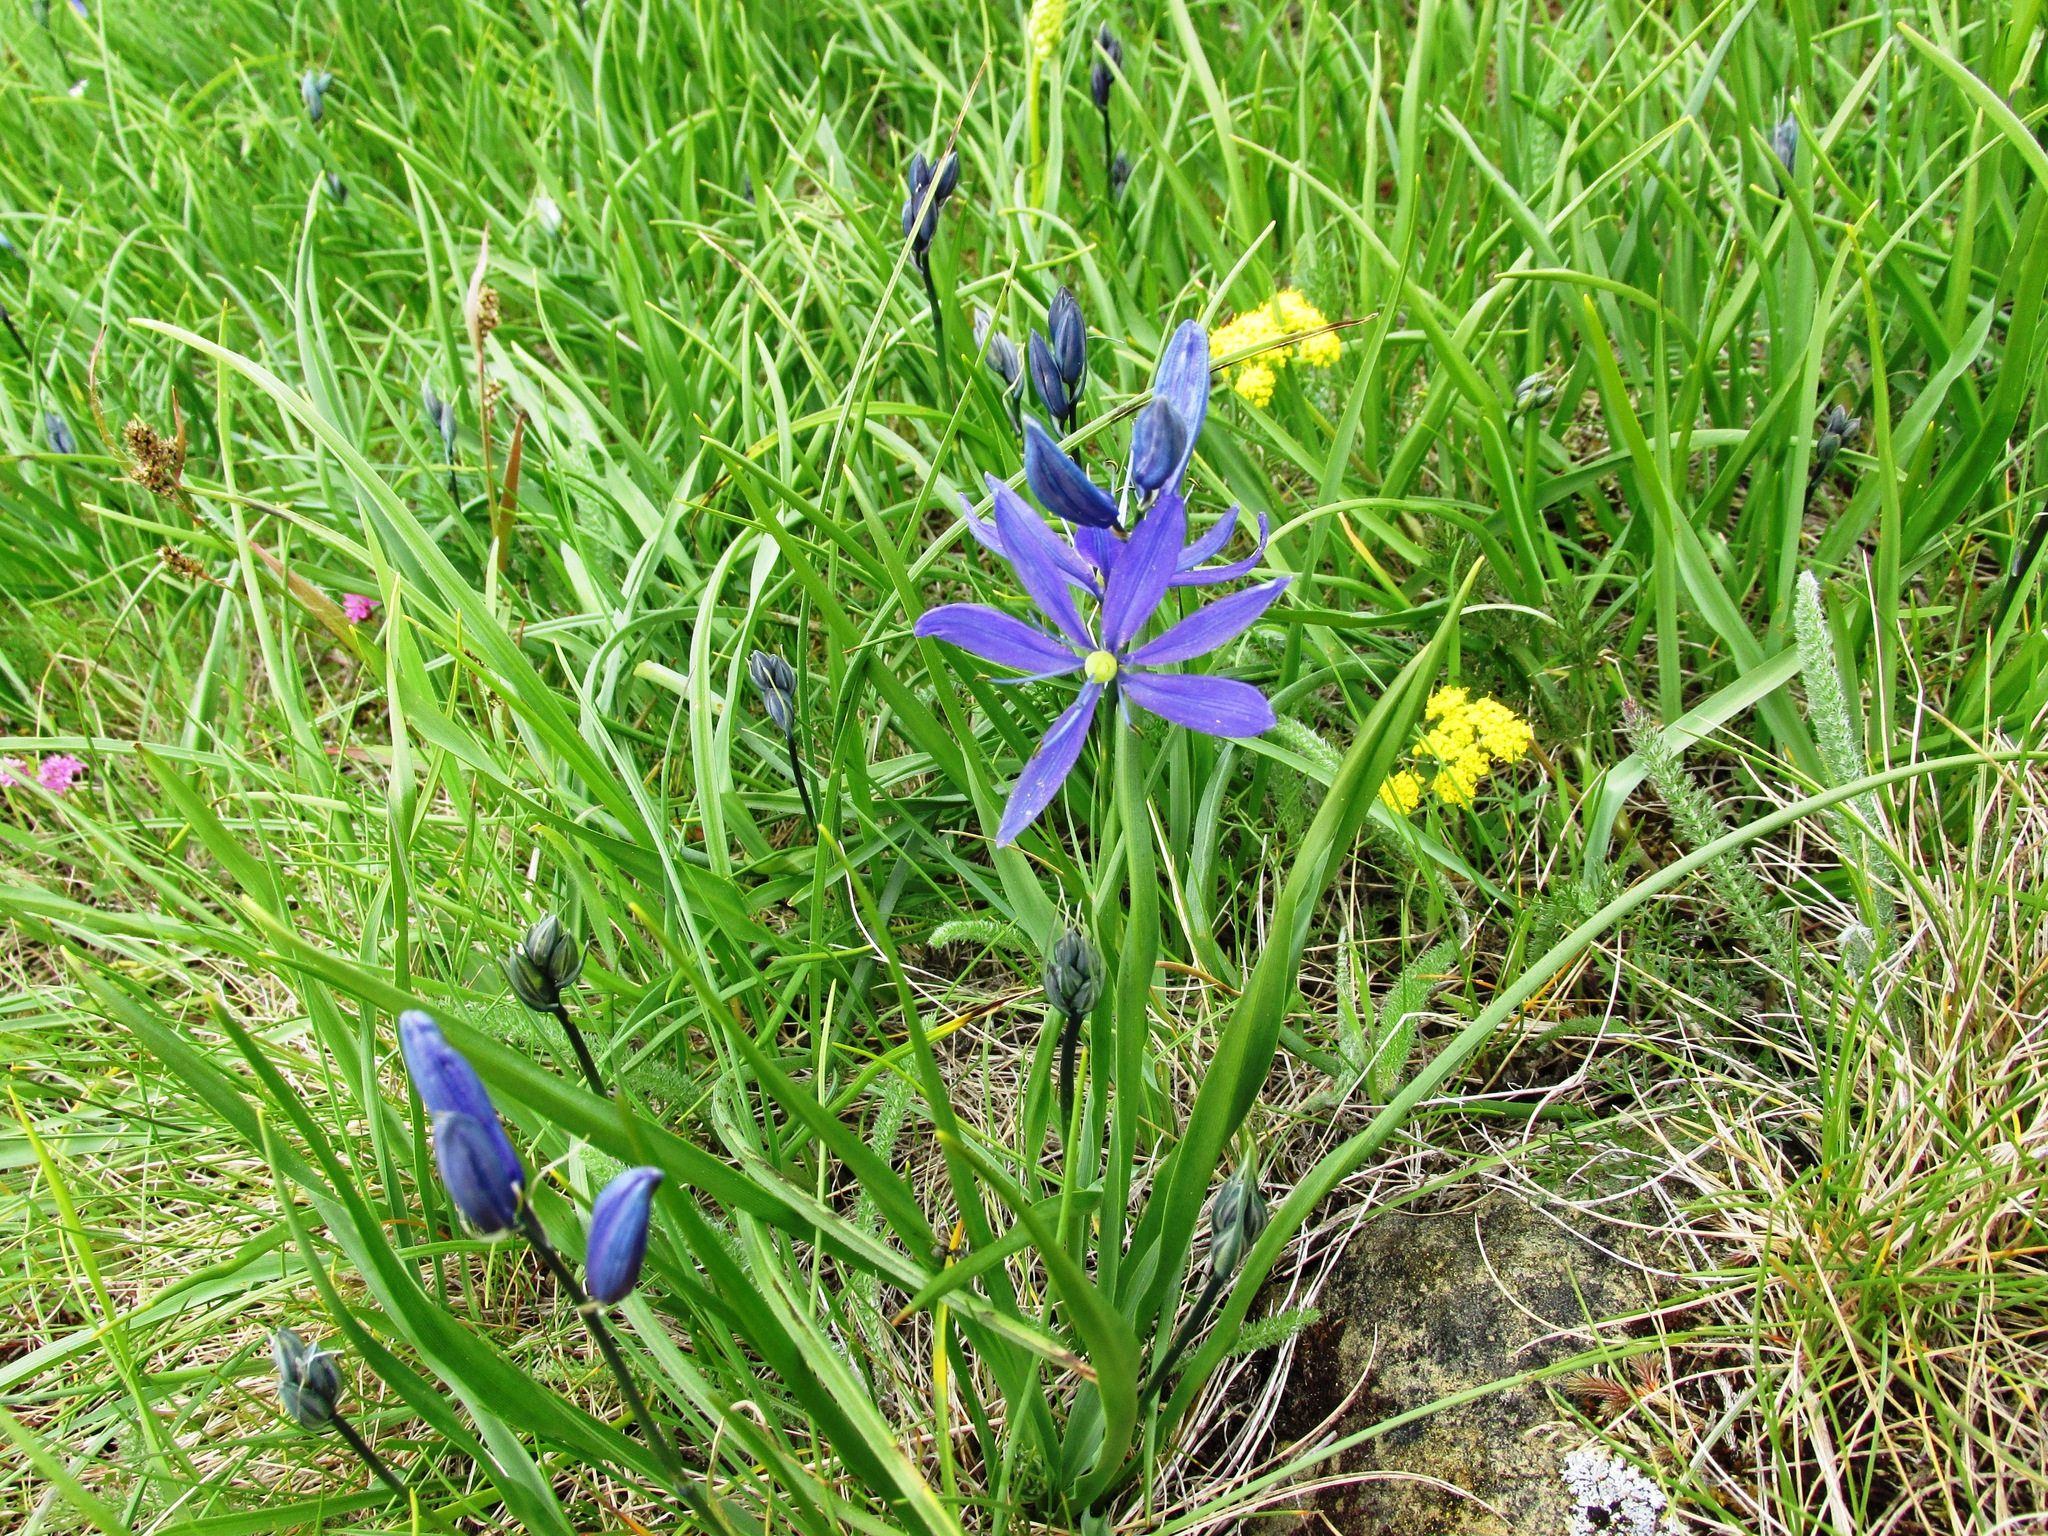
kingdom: Plantae
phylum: Tracheophyta
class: Liliopsida
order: Asparagales
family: Asparagaceae
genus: Camassia
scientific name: Camassia quamash
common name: Common camas
